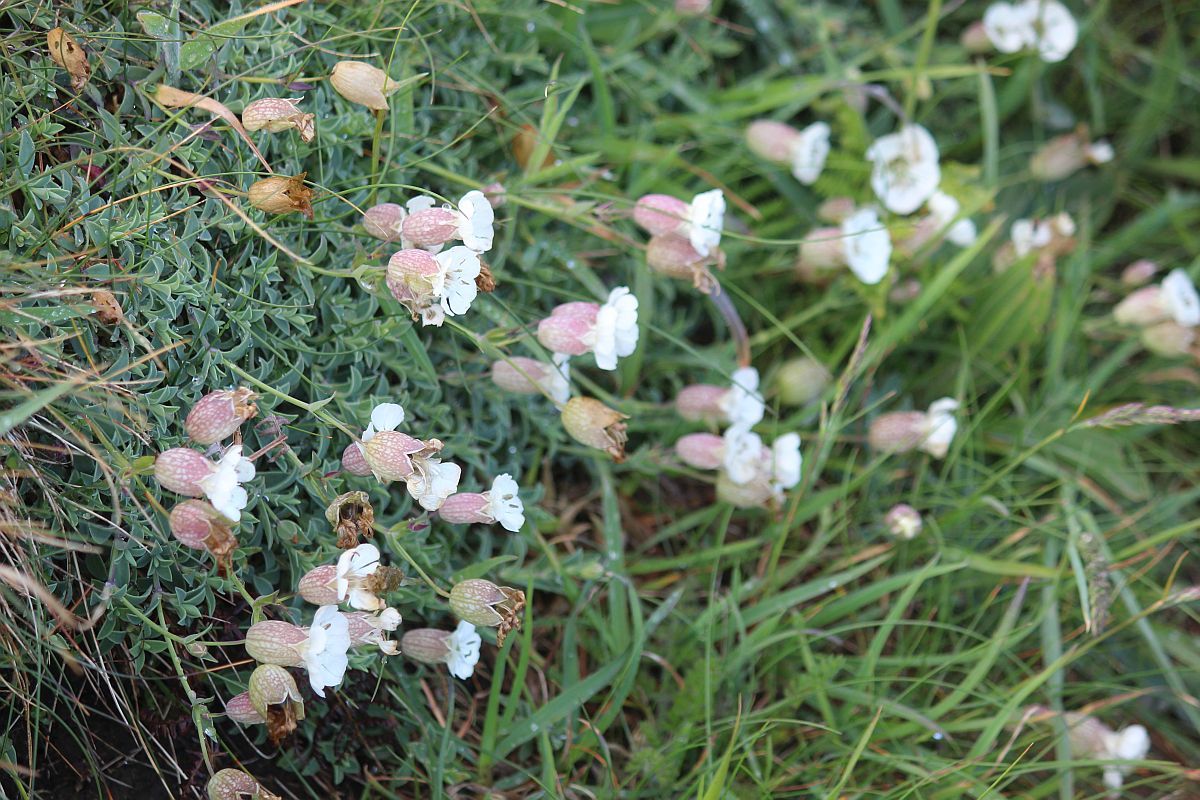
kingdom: Plantae
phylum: Tracheophyta
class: Magnoliopsida
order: Caryophyllales
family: Caryophyllaceae
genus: Silene
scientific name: Silene uniflora
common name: Sea campion
